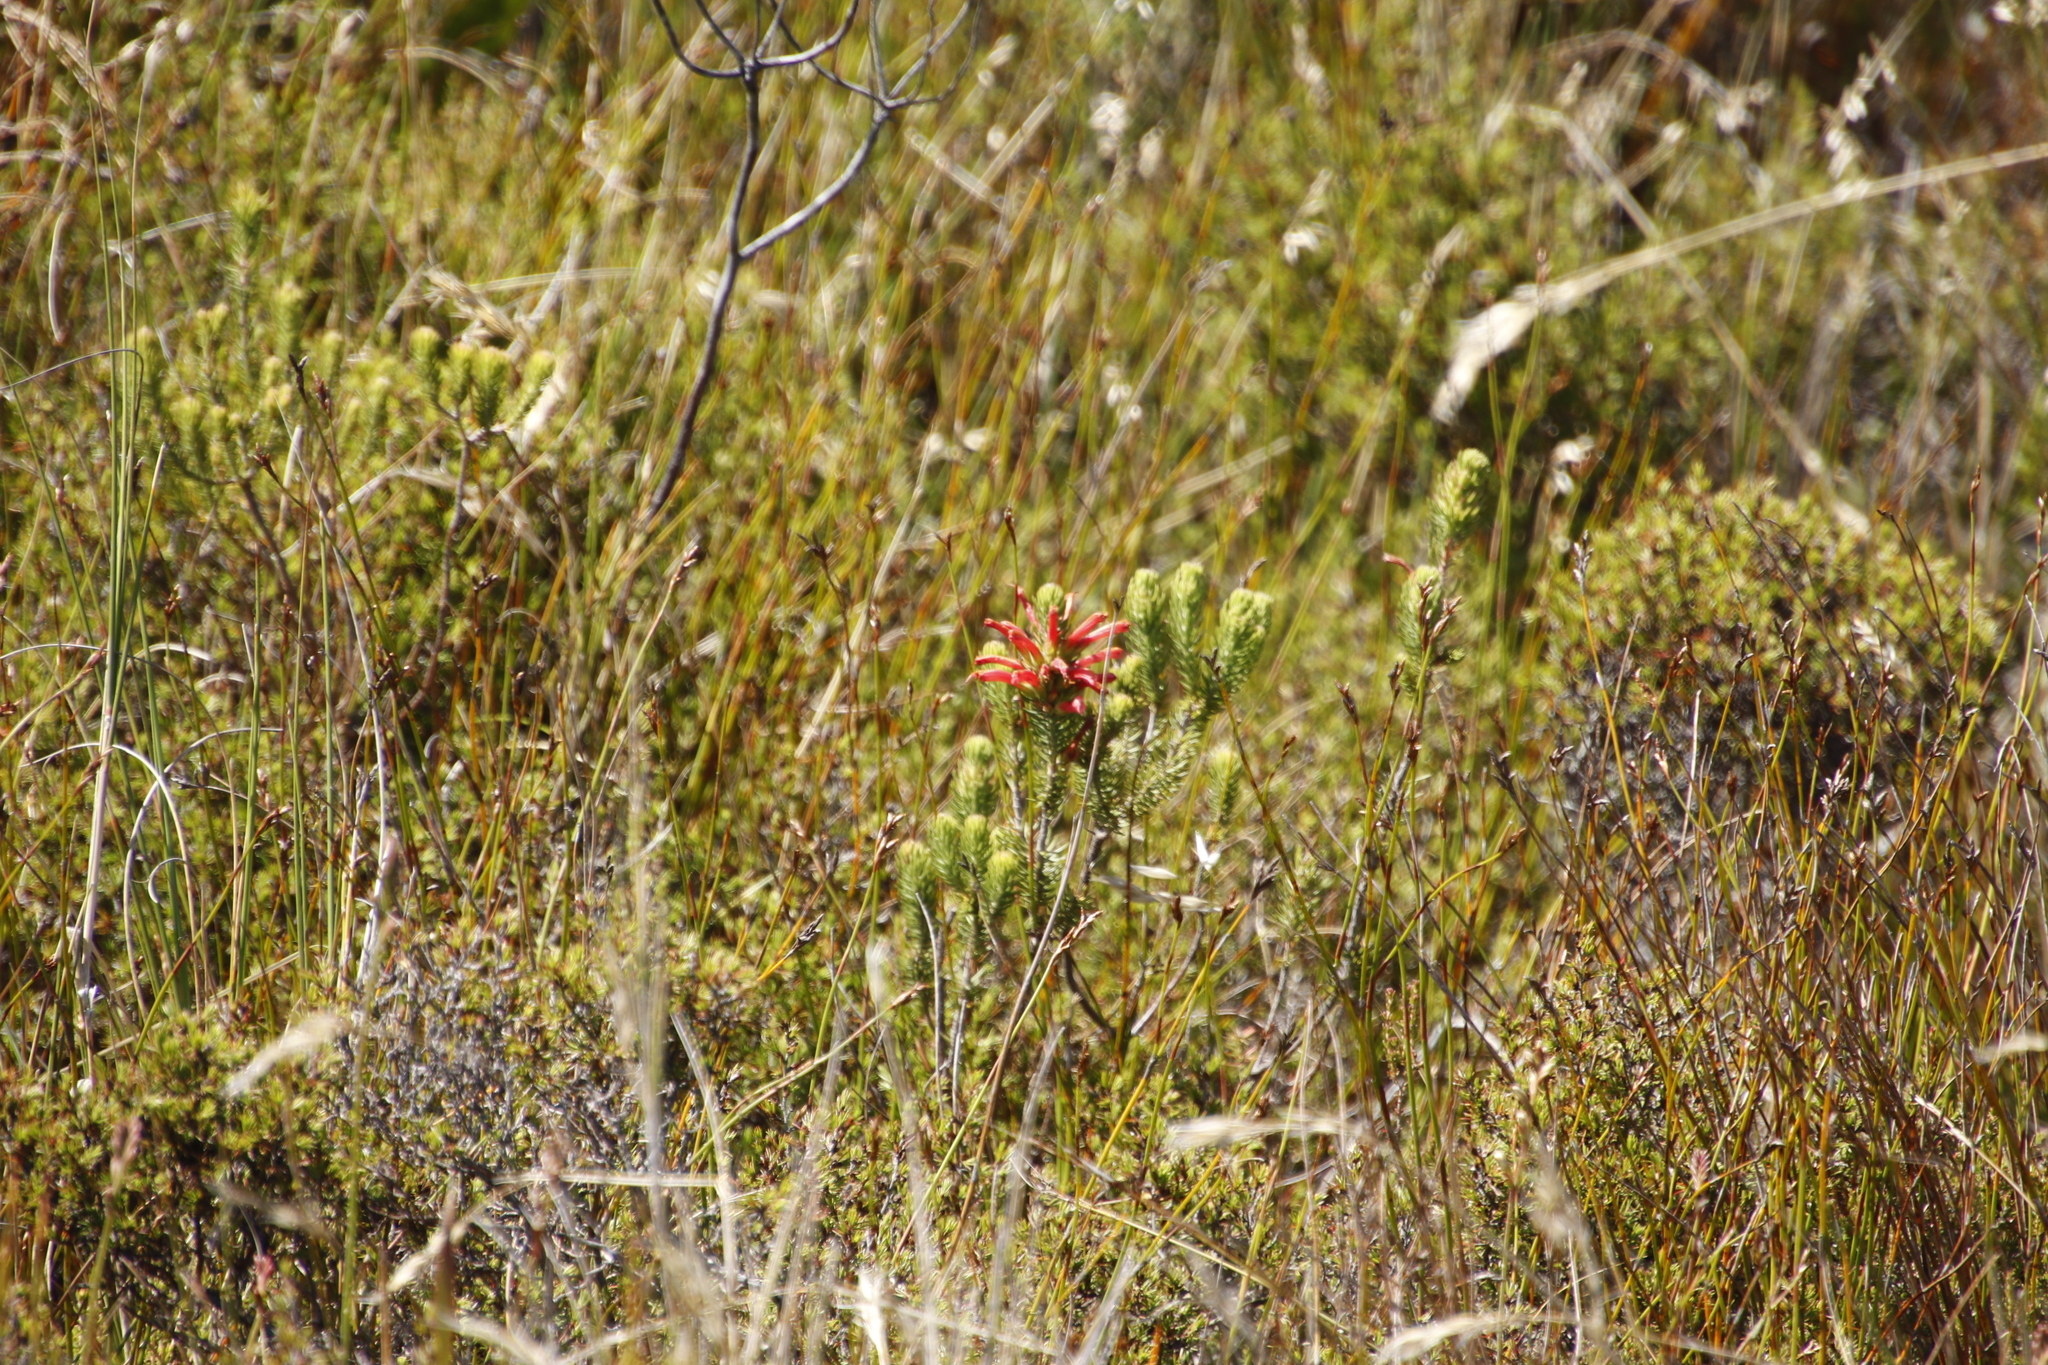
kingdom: Plantae
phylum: Tracheophyta
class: Magnoliopsida
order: Ericales
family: Ericaceae
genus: Erica
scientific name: Erica abietina
